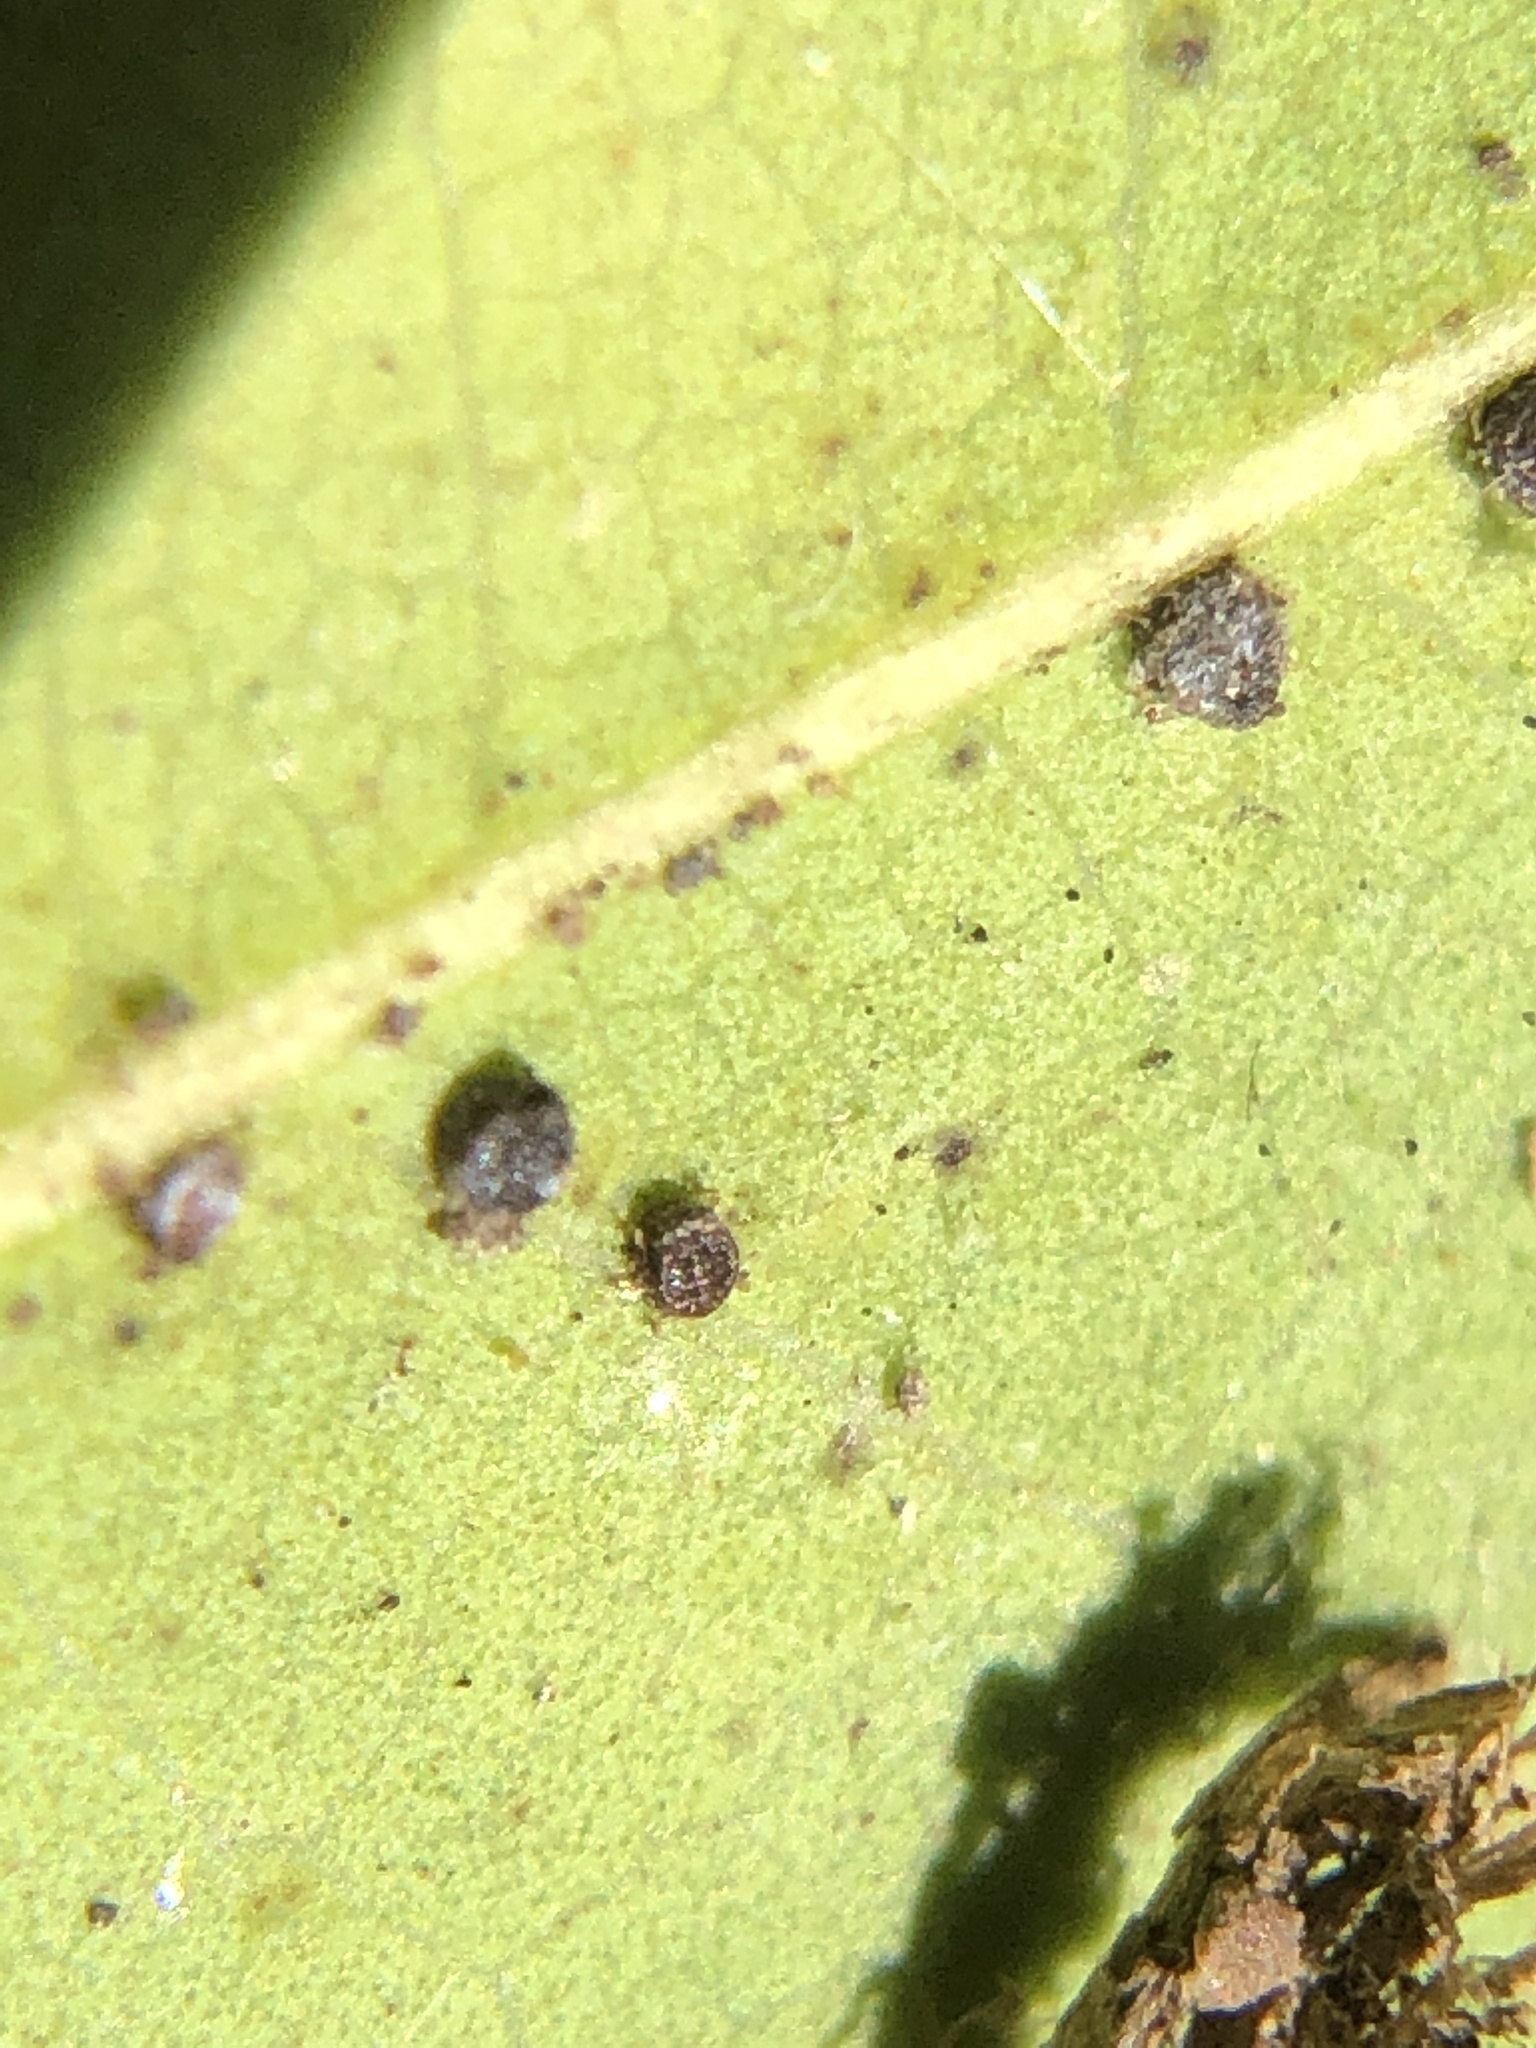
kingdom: Animalia
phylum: Arthropoda
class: Insecta
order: Hemiptera
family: Aphididae
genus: Euthoracaphis
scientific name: Euthoracaphis umbellulariae
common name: Aphid
